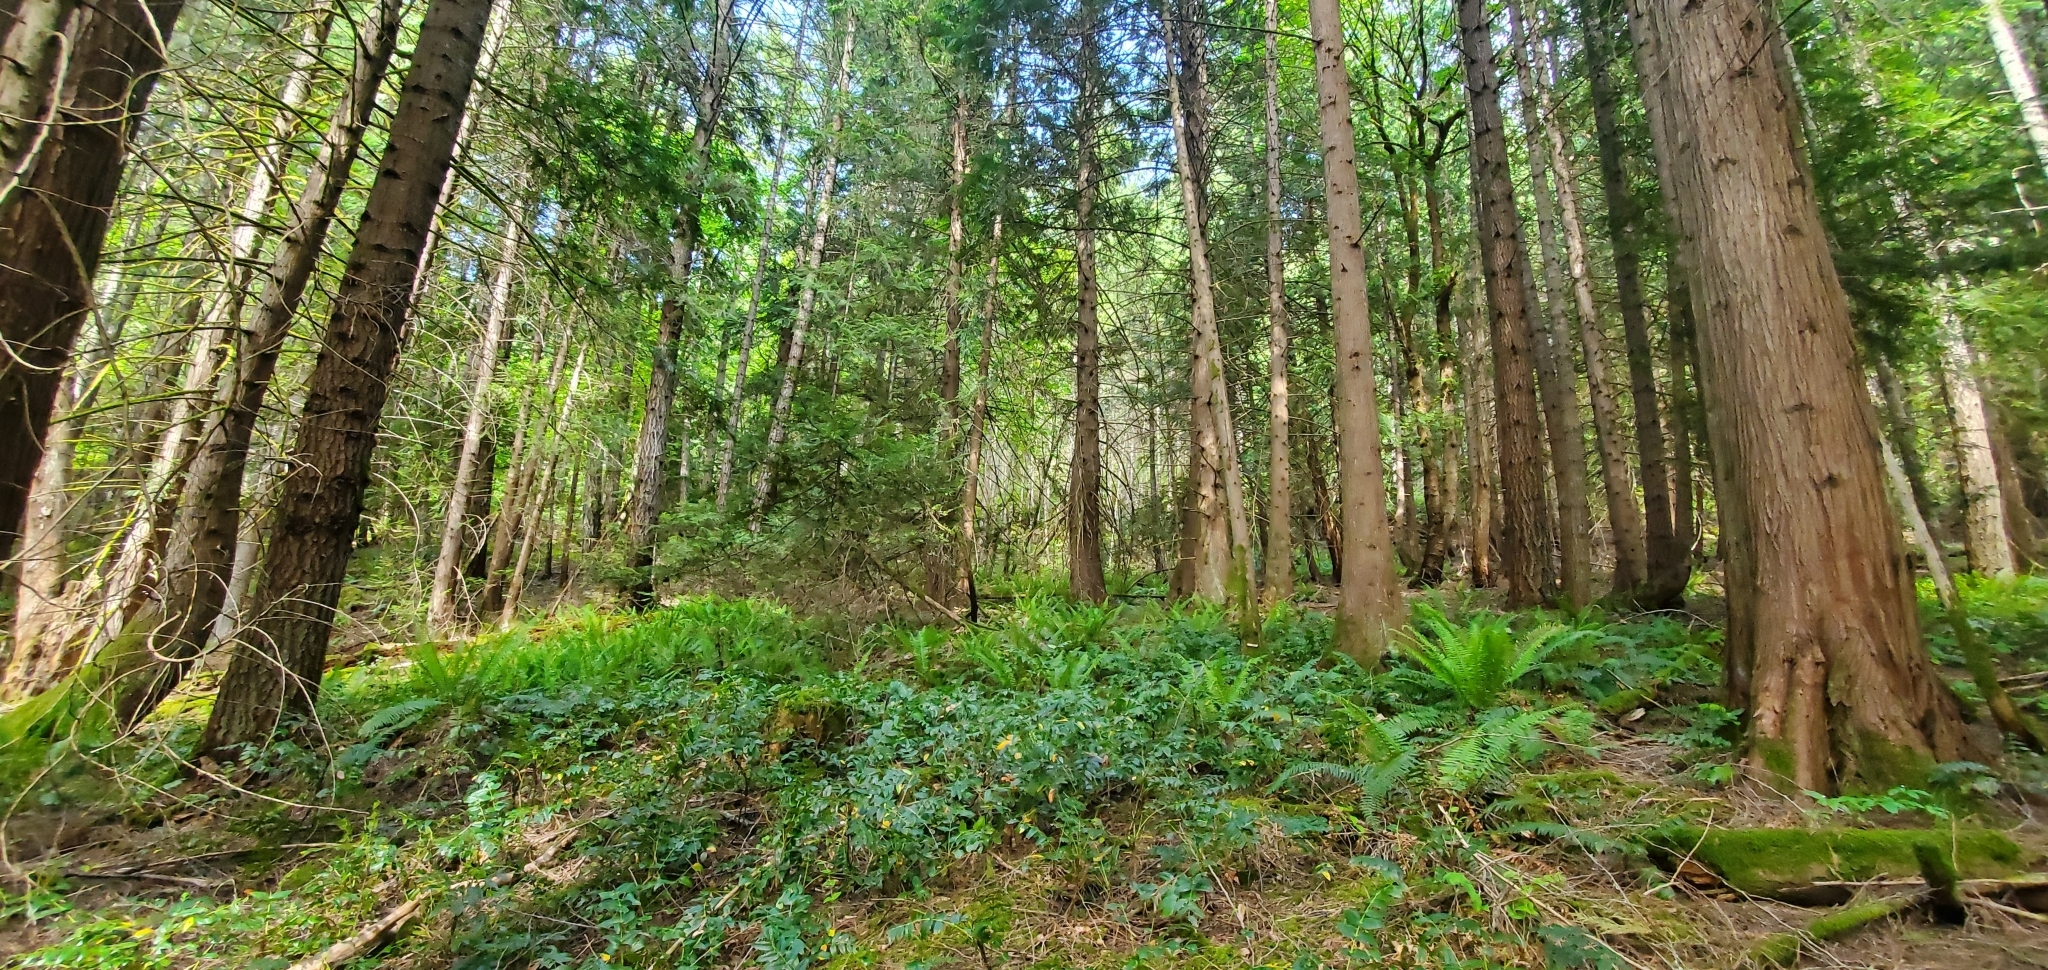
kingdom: Plantae
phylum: Tracheophyta
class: Pinopsida
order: Pinales
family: Cupressaceae
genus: Thuja
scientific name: Thuja plicata
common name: Western red-cedar
